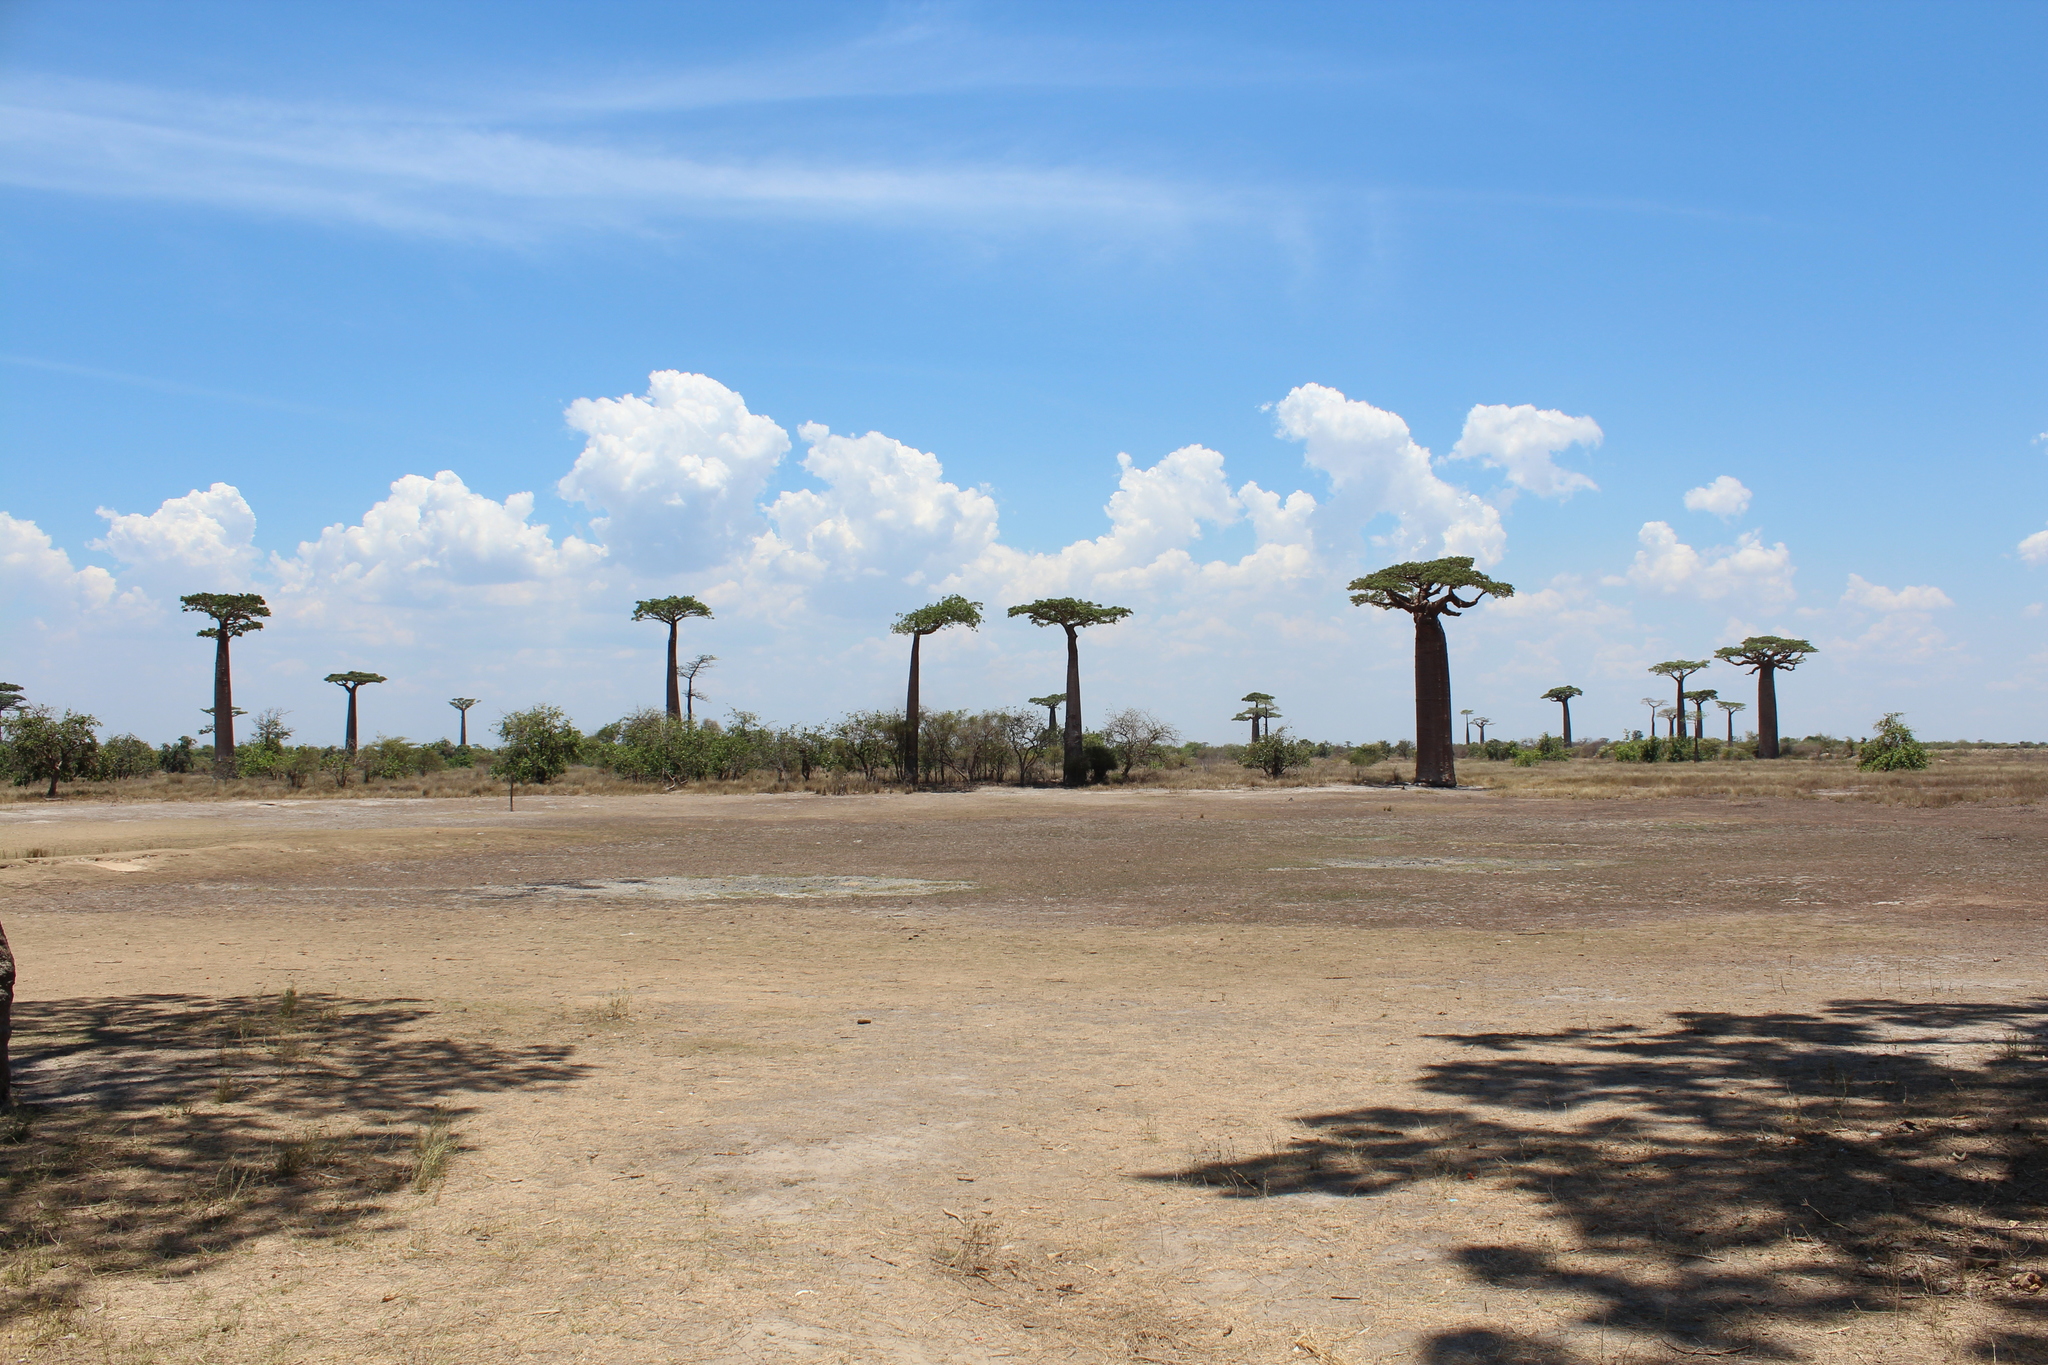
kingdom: Plantae
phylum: Tracheophyta
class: Magnoliopsida
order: Malvales
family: Malvaceae
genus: Adansonia
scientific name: Adansonia grandidieri
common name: Grandidier's baobab
